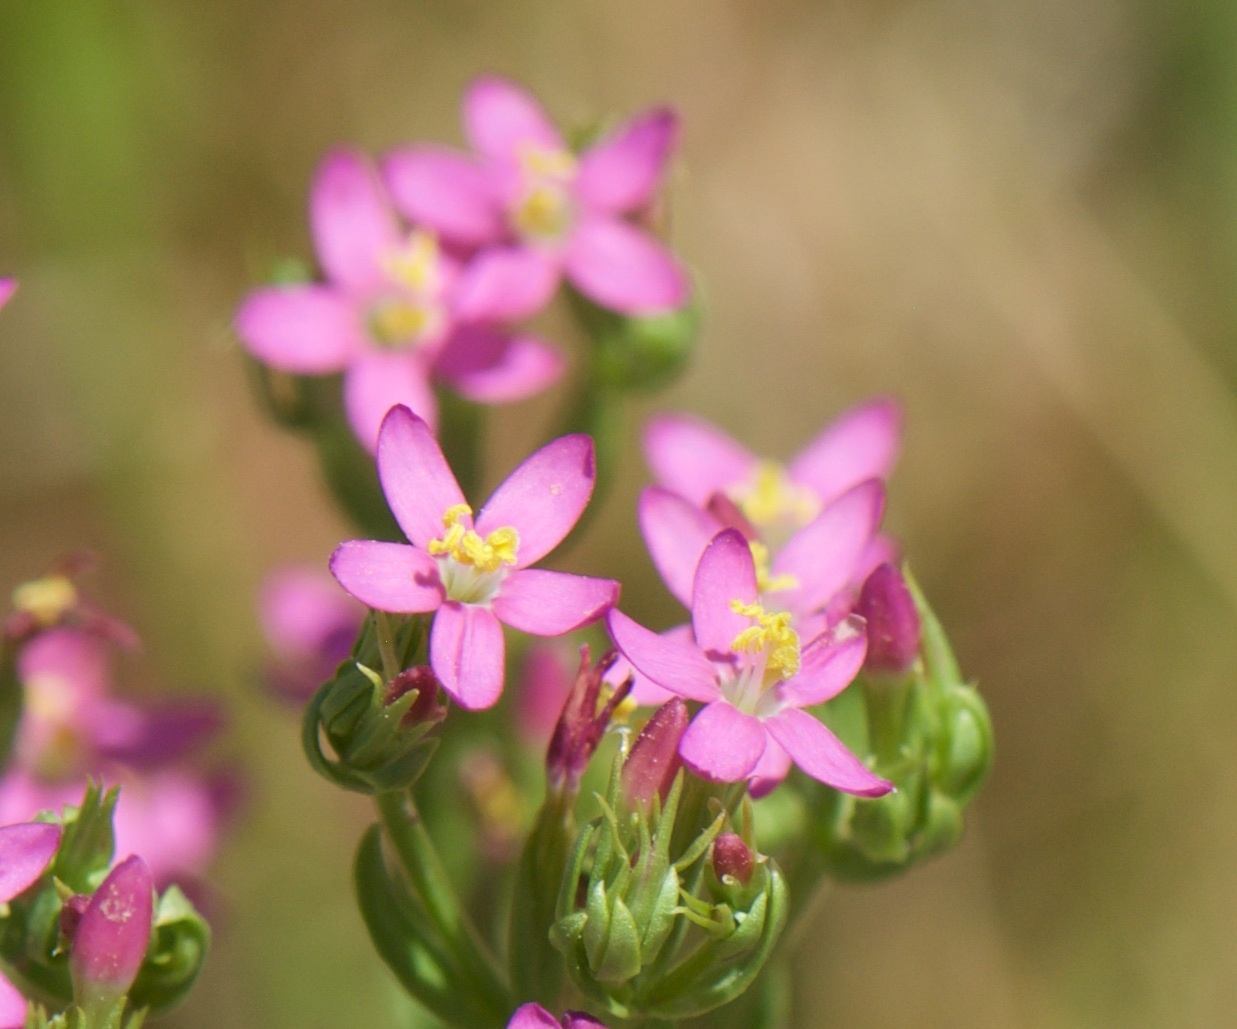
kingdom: Plantae
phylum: Tracheophyta
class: Magnoliopsida
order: Gentianales
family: Gentianaceae
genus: Centaurium
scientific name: Centaurium pulchellum
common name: Lesser centaury
